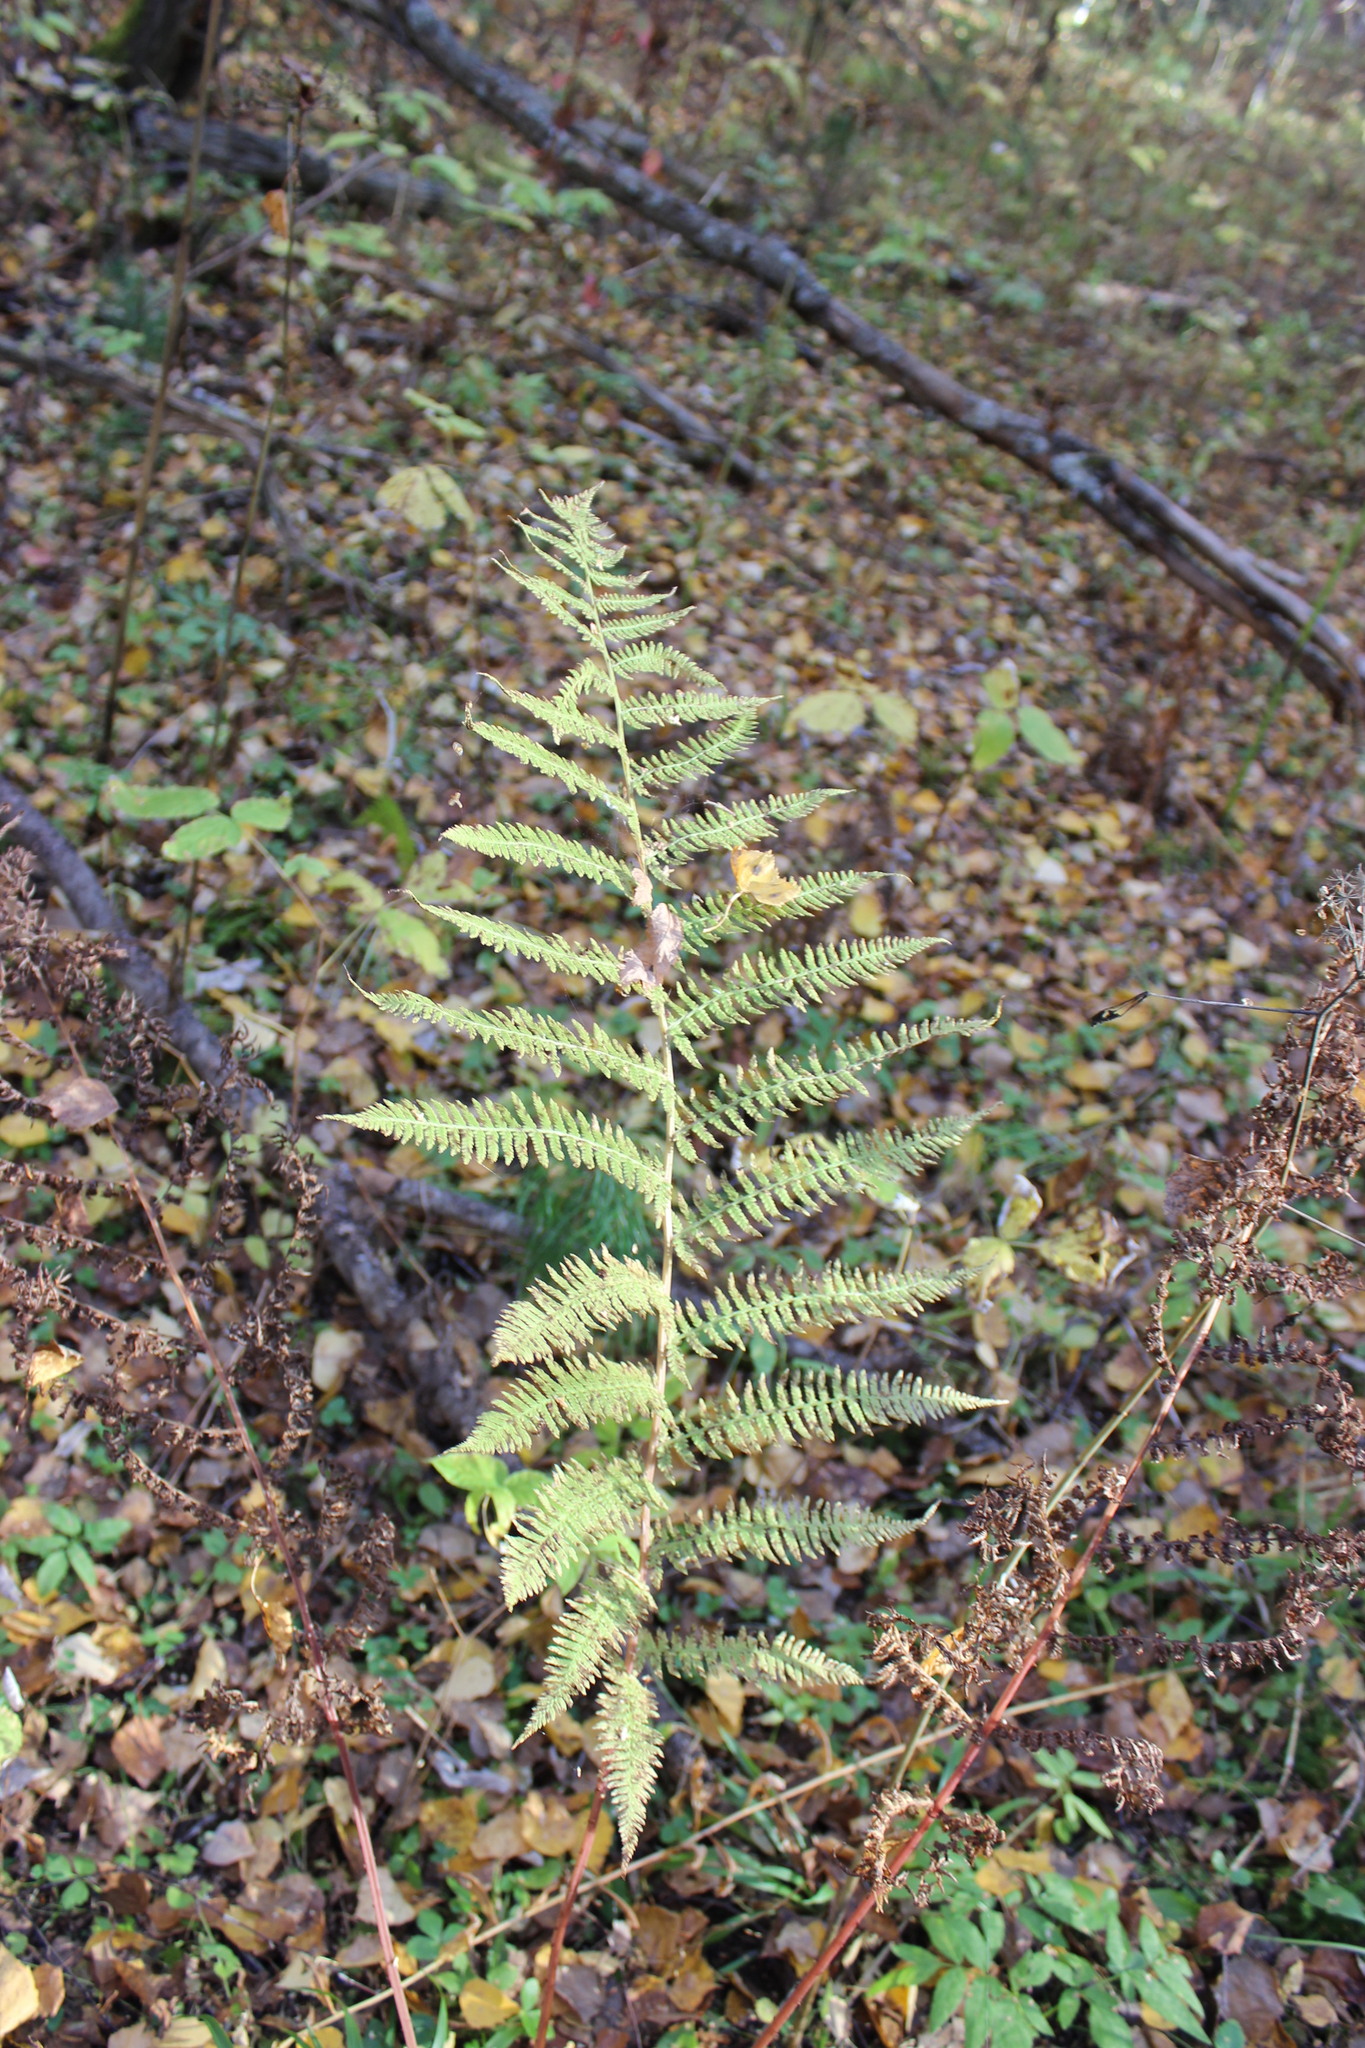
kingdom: Plantae
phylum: Tracheophyta
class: Polypodiopsida
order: Polypodiales
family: Athyriaceae
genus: Athyrium
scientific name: Athyrium filix-femina
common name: Lady fern
